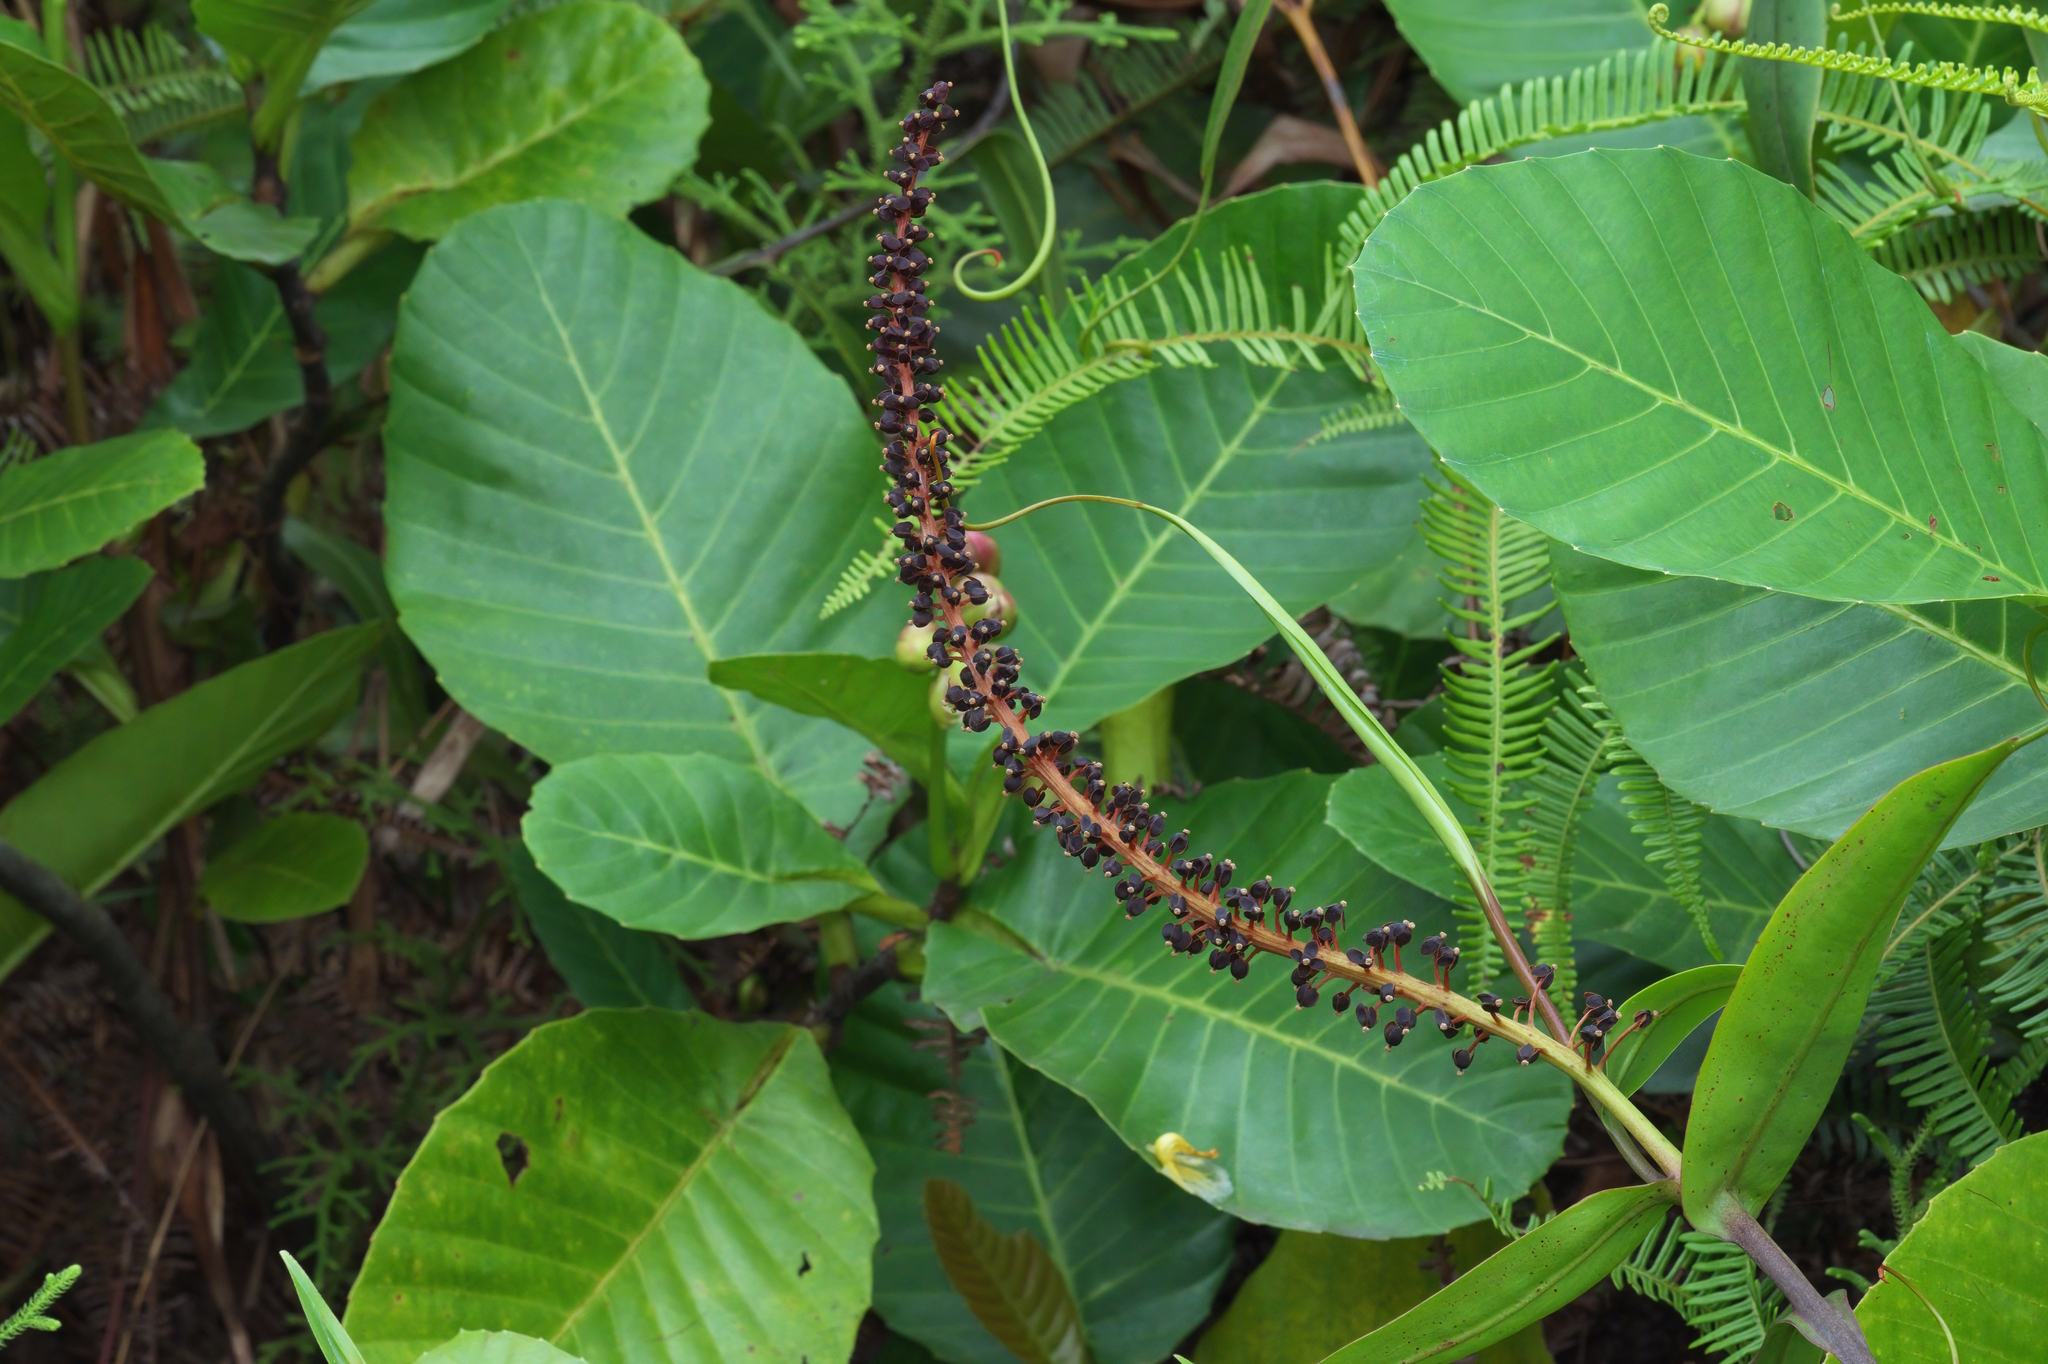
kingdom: Plantae
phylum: Tracheophyta
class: Magnoliopsida
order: Caryophyllales
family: Nepenthaceae
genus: Nepenthes
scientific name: Nepenthes gracilis
